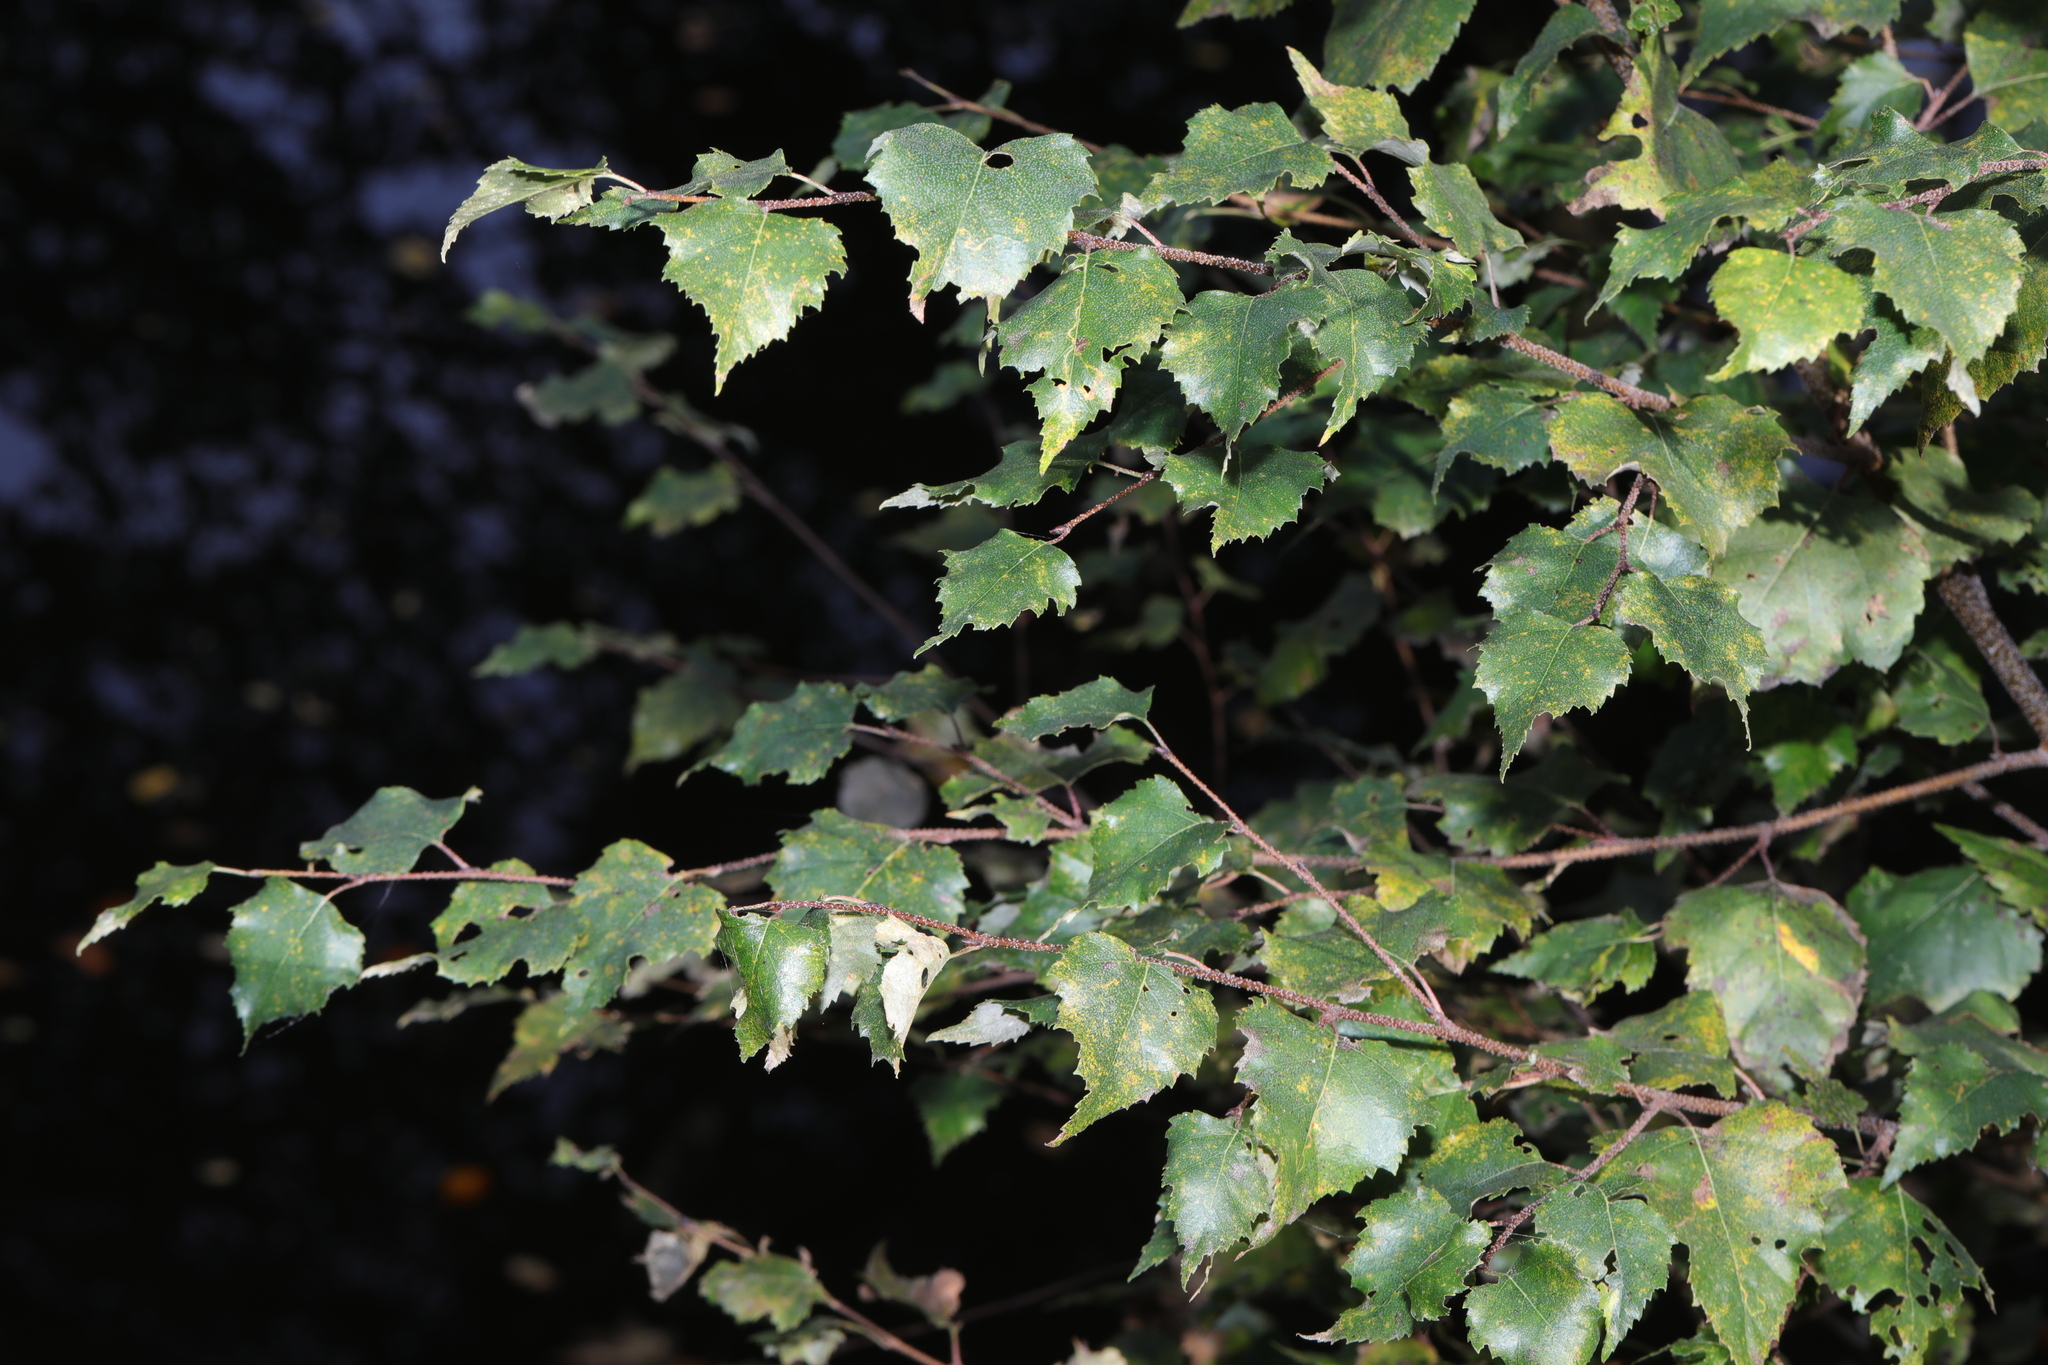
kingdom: Plantae
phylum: Tracheophyta
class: Magnoliopsida
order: Fagales
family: Betulaceae
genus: Betula
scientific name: Betula pendula
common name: Silver birch
